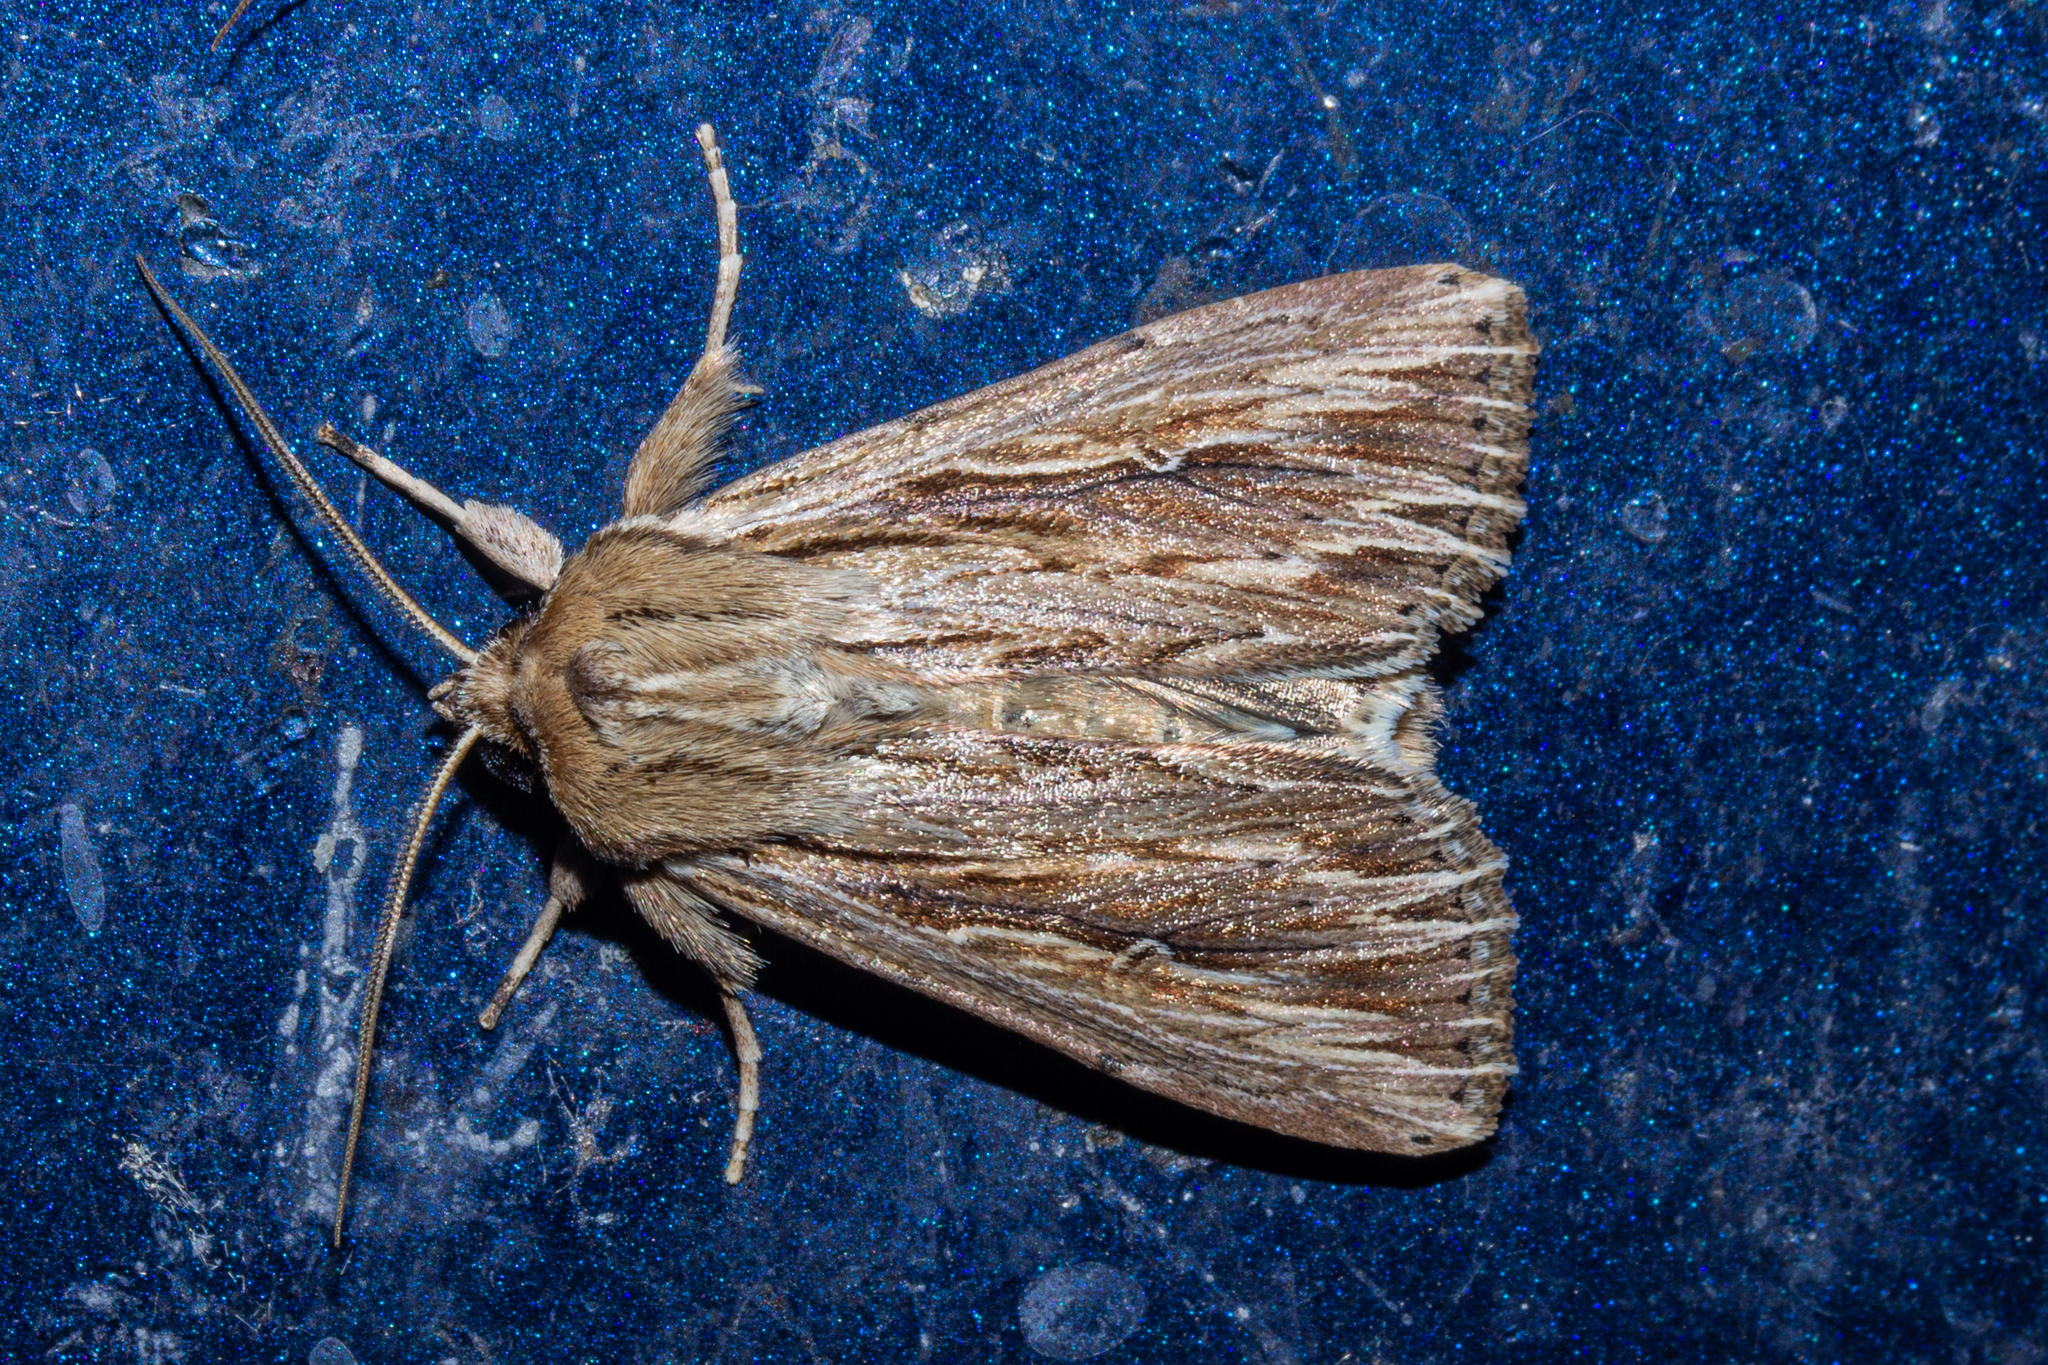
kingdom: Animalia
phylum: Arthropoda
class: Insecta
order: Lepidoptera
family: Noctuidae
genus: Persectania
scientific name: Persectania aversa
